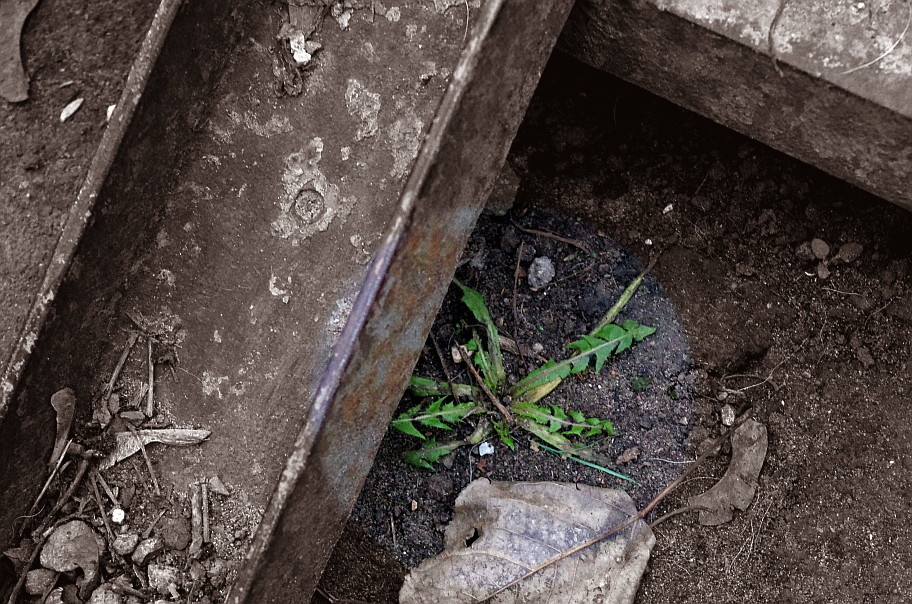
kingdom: Plantae
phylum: Tracheophyta
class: Magnoliopsida
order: Asterales
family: Asteraceae
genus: Taraxacum
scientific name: Taraxacum officinale
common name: Common dandelion
